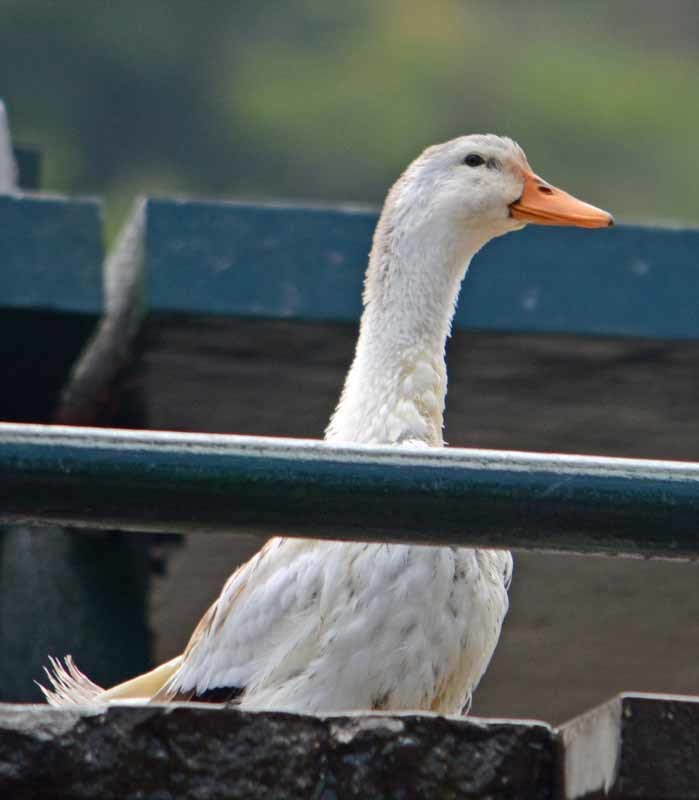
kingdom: Animalia
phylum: Chordata
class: Aves
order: Anseriformes
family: Anatidae
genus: Anas
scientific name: Anas platyrhynchos
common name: Mallard
